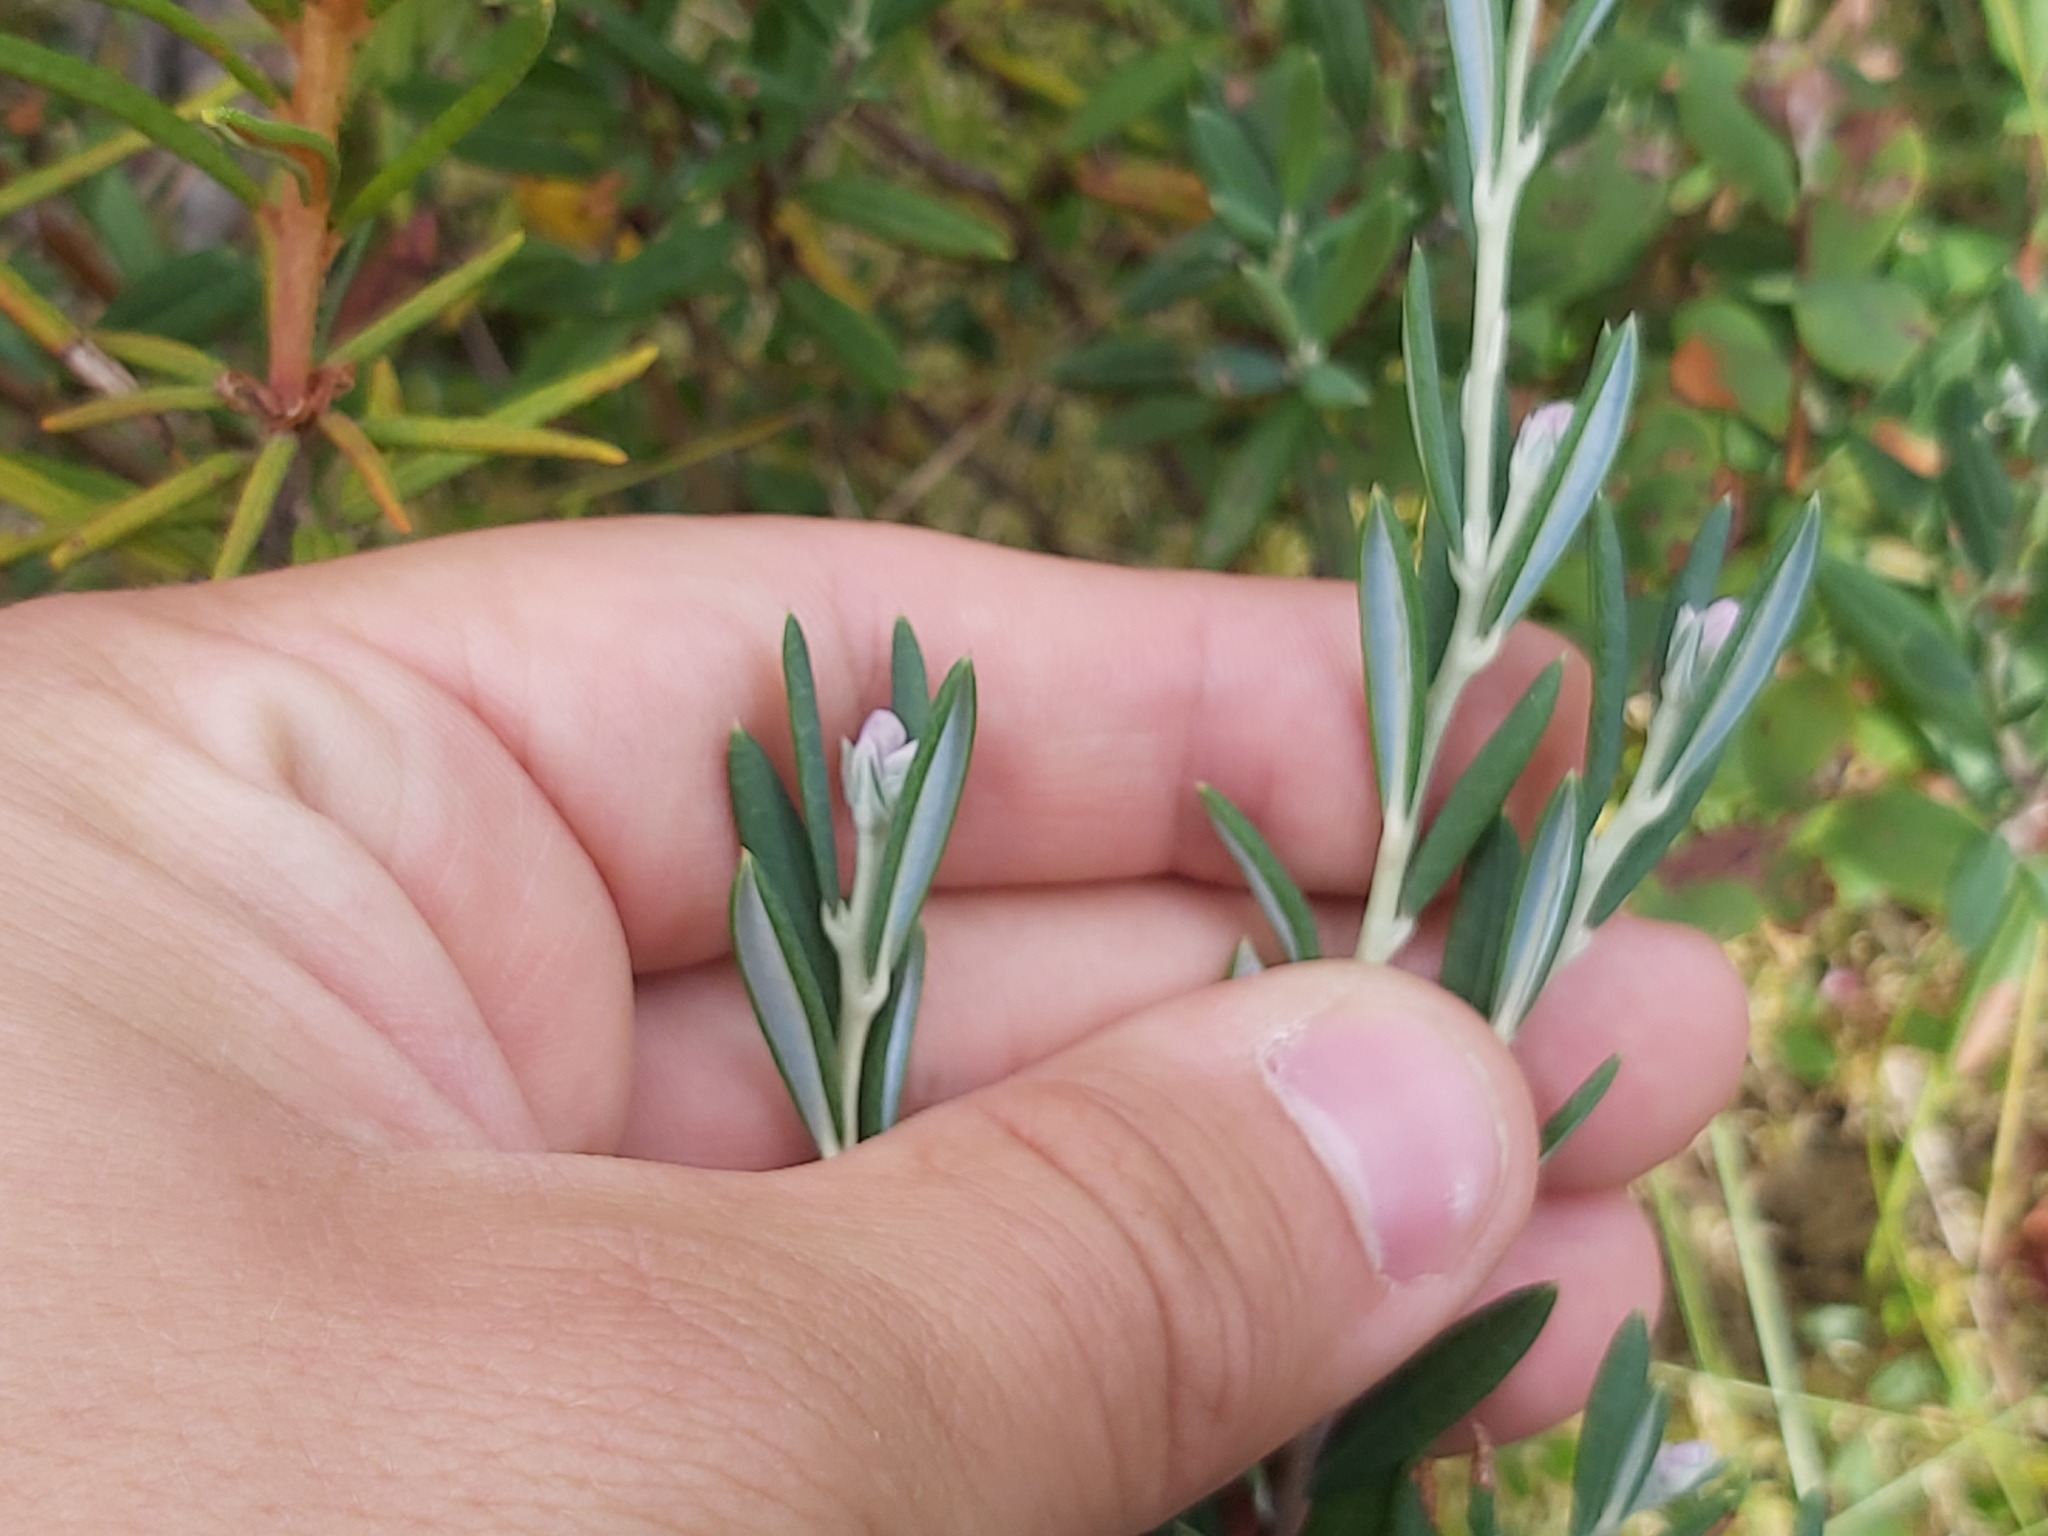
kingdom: Plantae
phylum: Tracheophyta
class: Magnoliopsida
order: Ericales
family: Ericaceae
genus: Andromeda
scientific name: Andromeda polifolia
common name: Bog-rosemary
